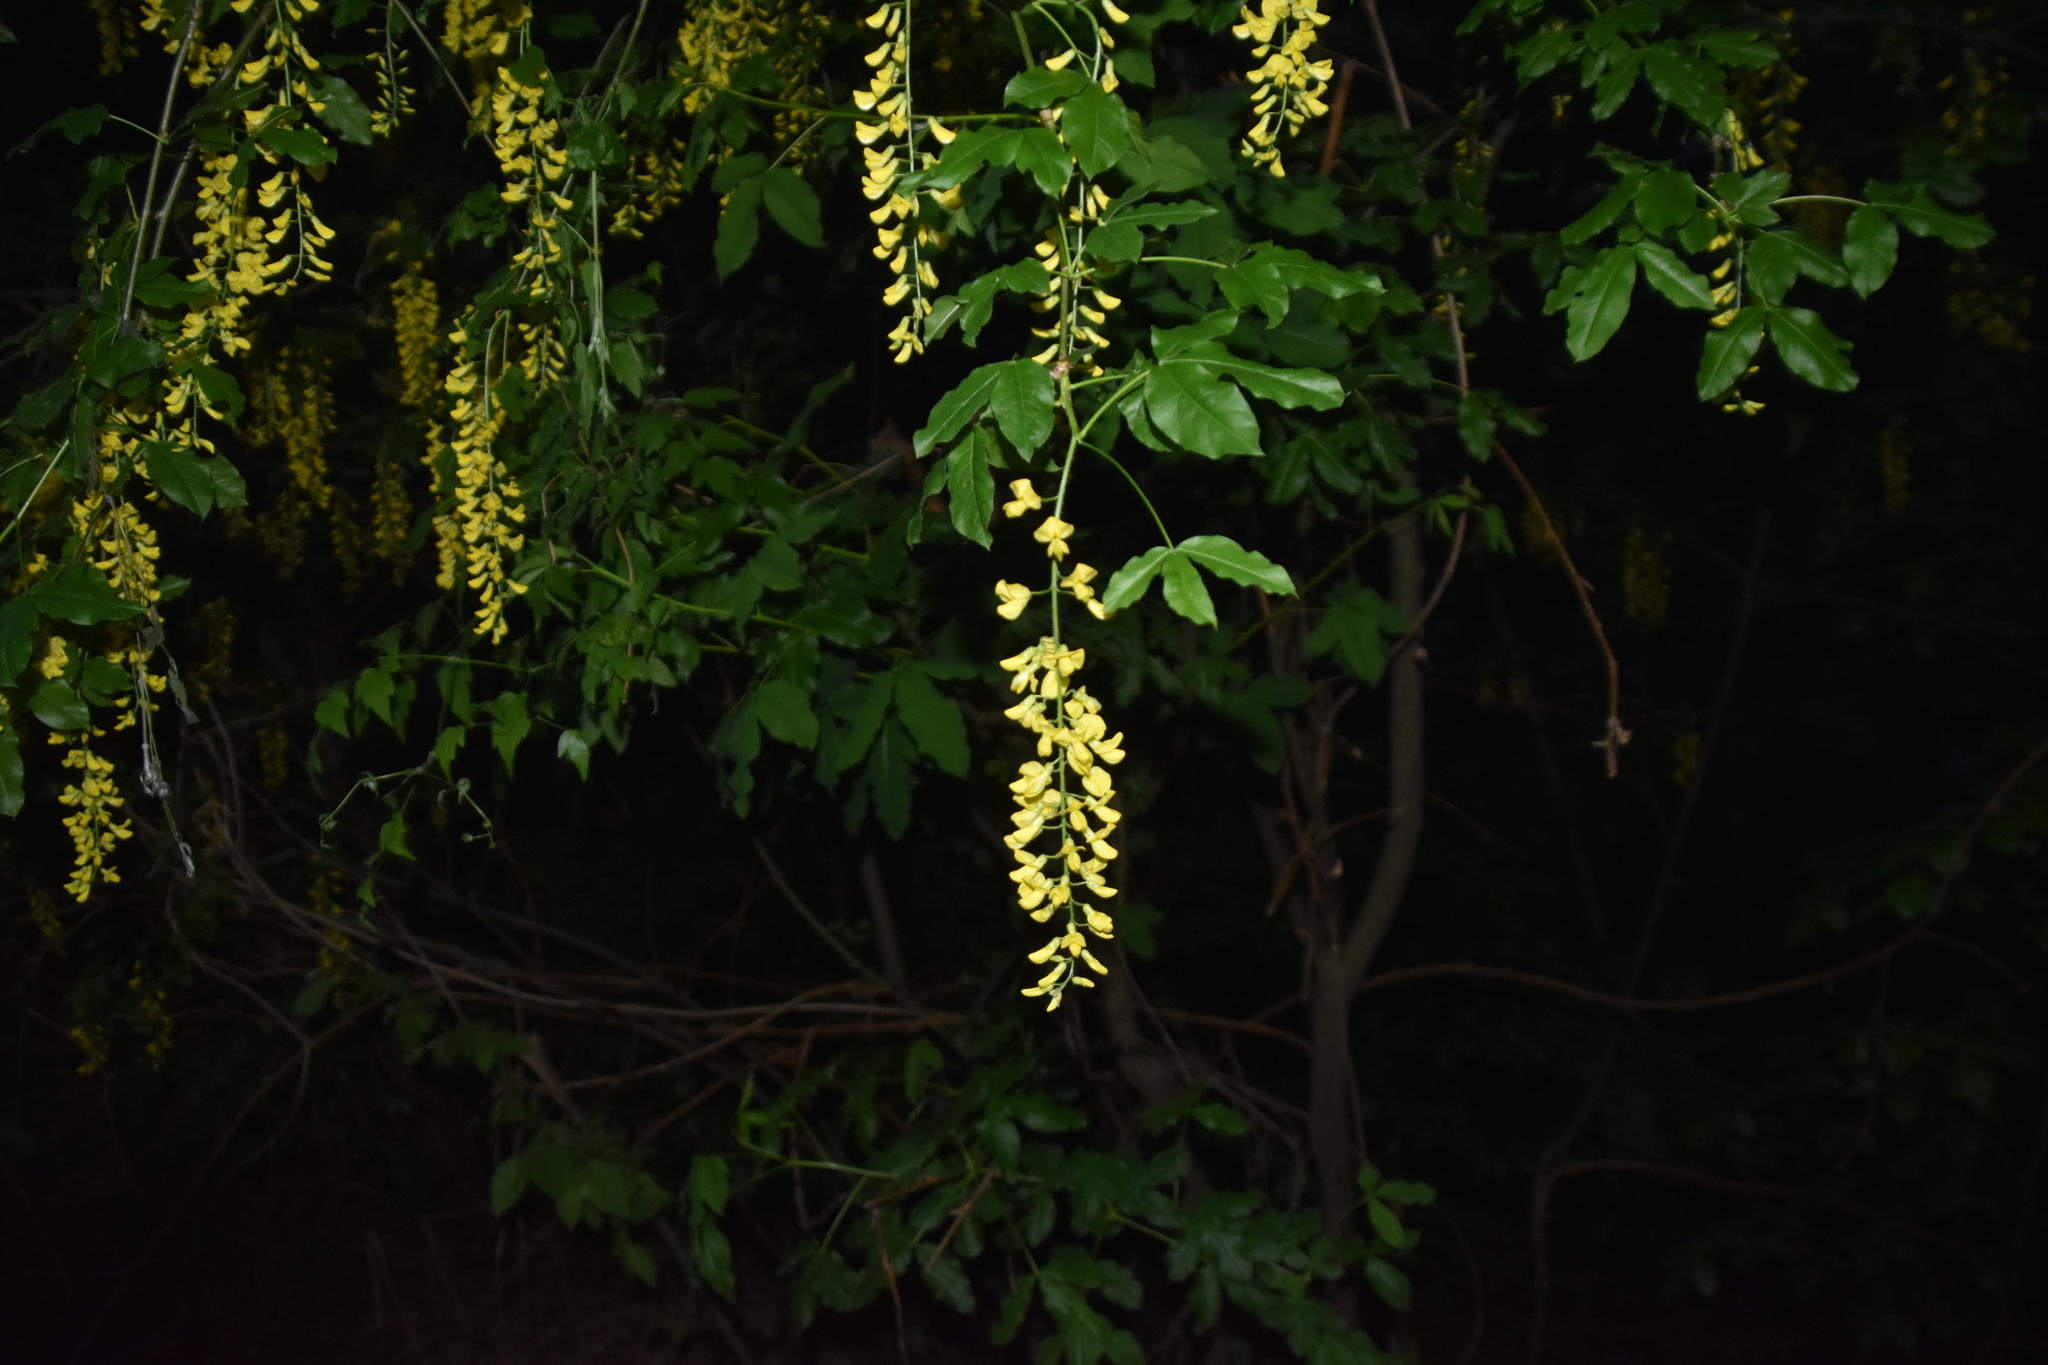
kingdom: Plantae
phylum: Tracheophyta
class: Magnoliopsida
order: Fabales
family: Fabaceae
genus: Laburnum
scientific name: Laburnum alpinum
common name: Scottish laburnum
